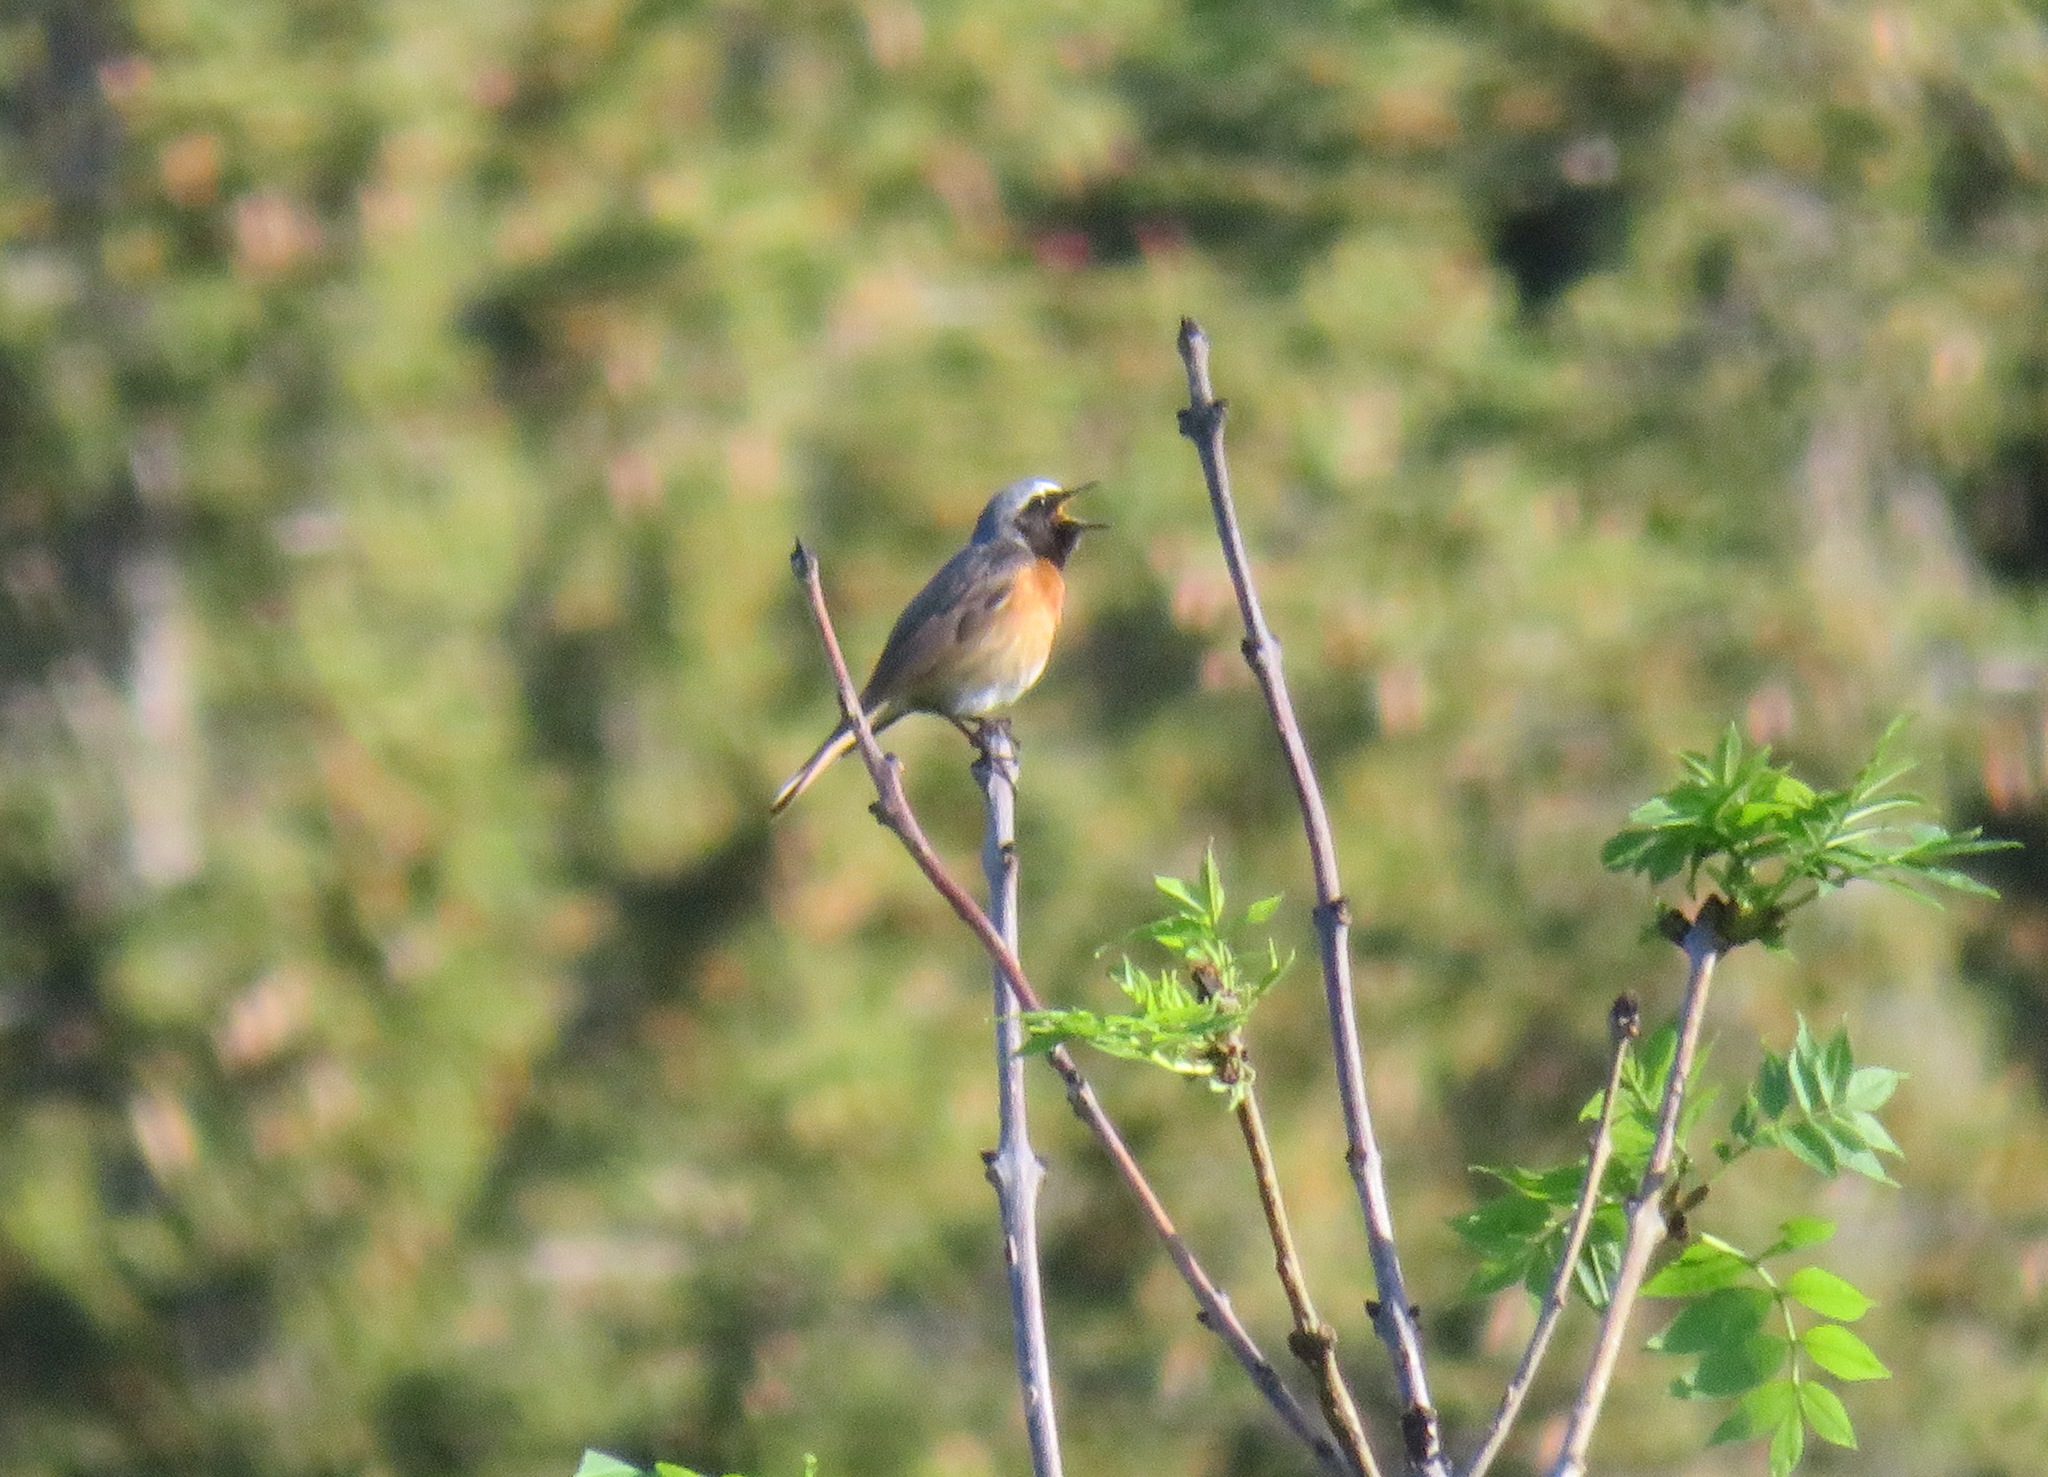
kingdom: Animalia
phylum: Chordata
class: Aves
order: Passeriformes
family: Muscicapidae
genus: Phoenicurus
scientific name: Phoenicurus phoenicurus
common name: Common redstart
